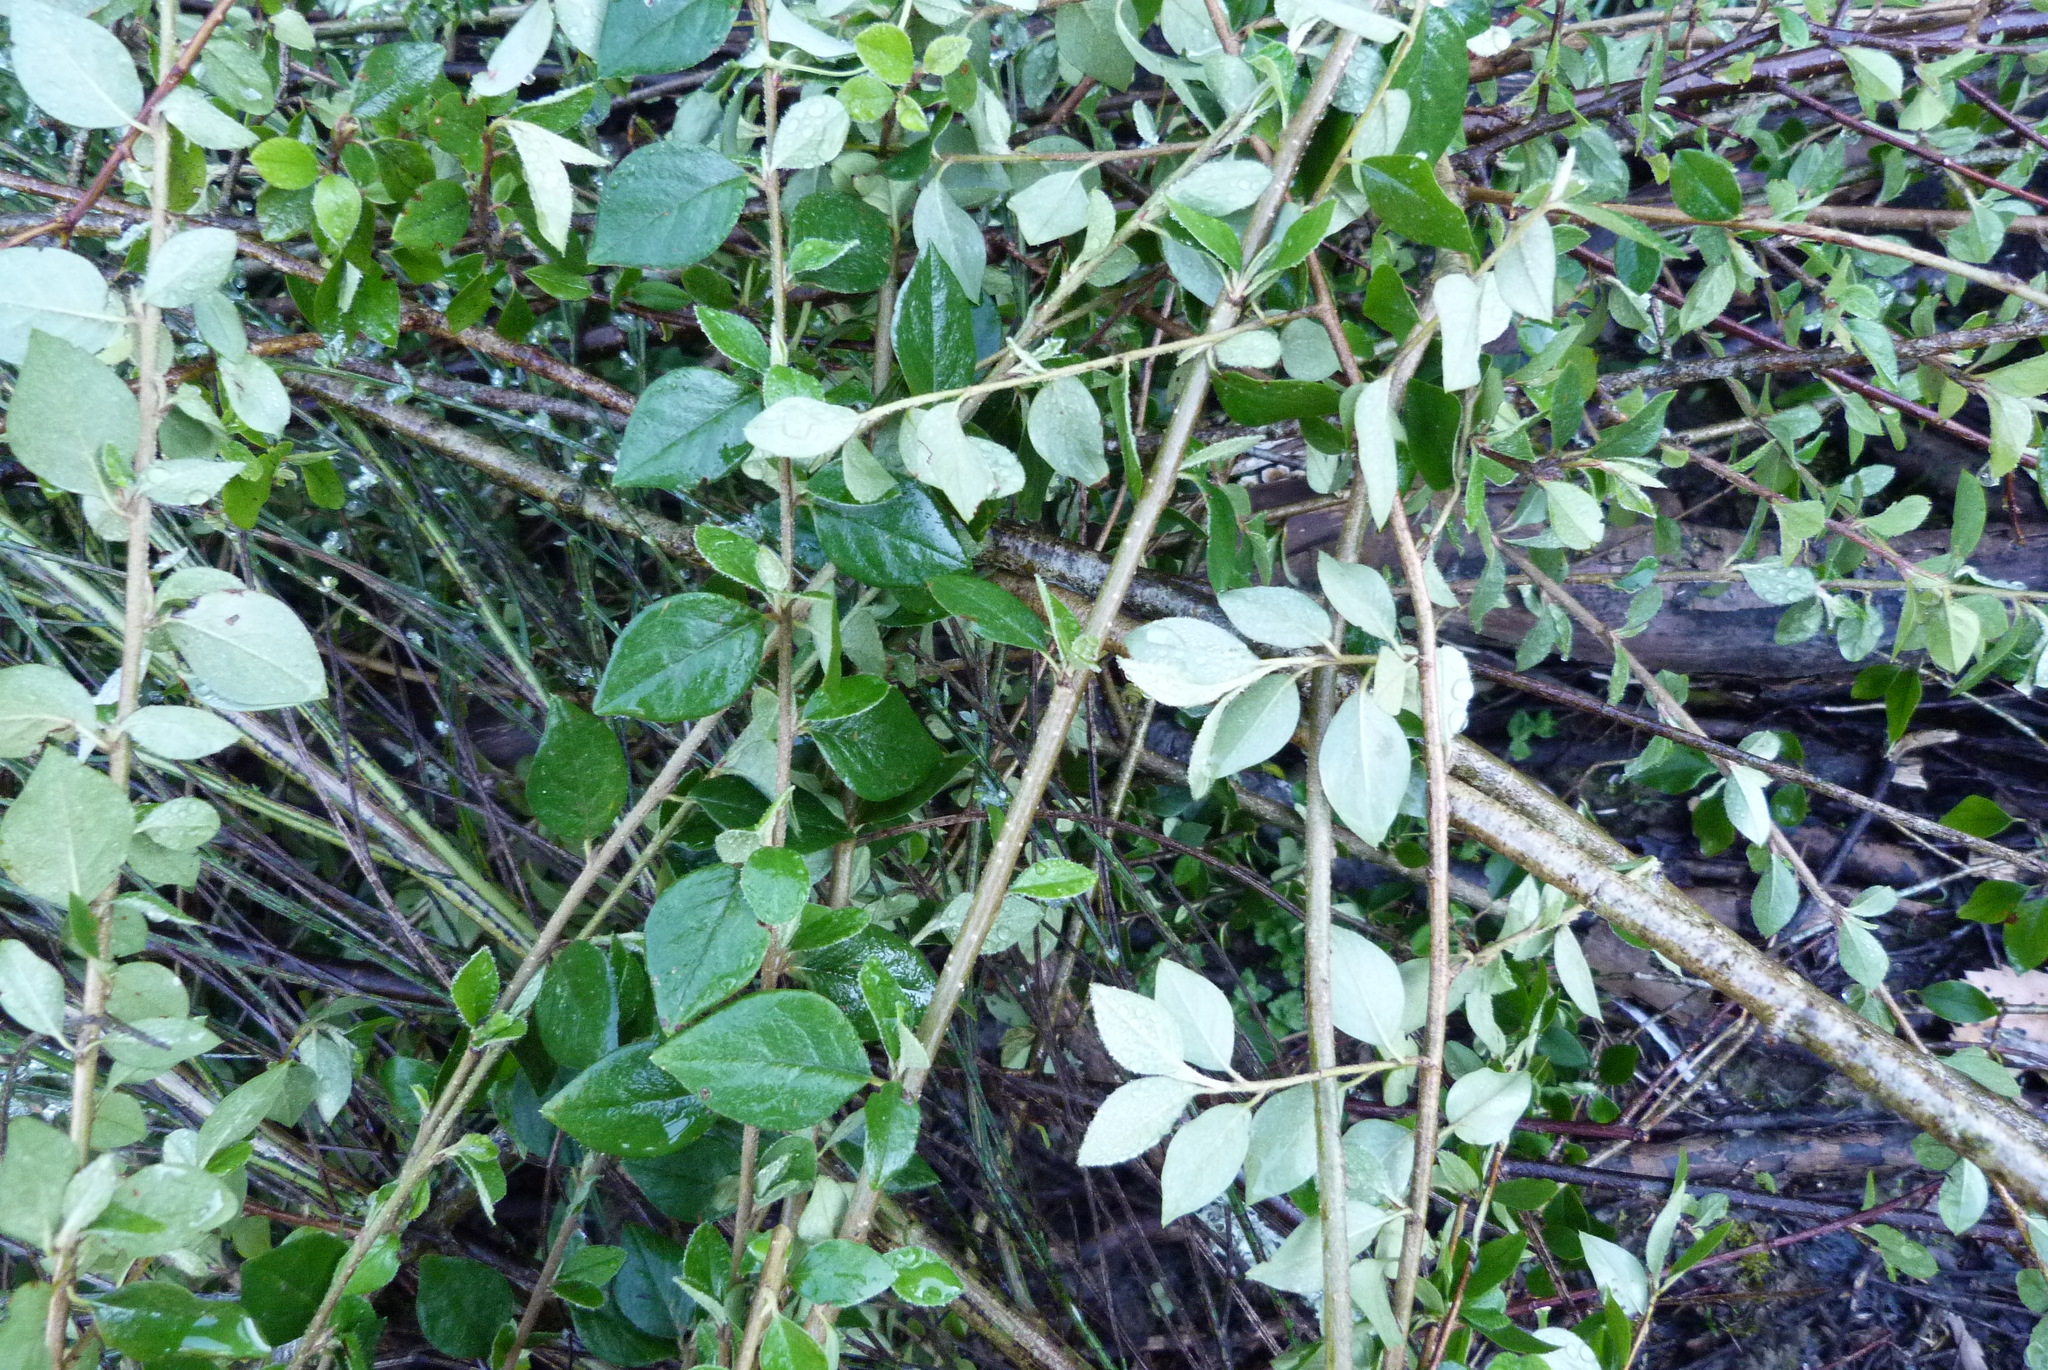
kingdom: Plantae
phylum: Tracheophyta
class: Magnoliopsida
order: Rosales
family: Rosaceae
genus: Cotoneaster
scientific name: Cotoneaster simonsii
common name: Himalayan cotoneaster
